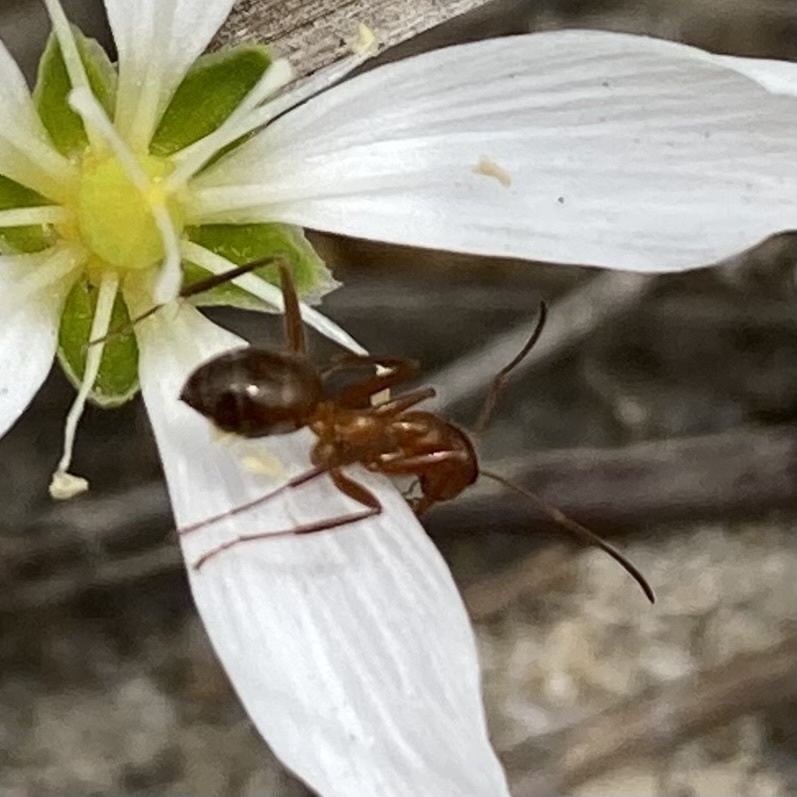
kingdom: Animalia
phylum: Arthropoda
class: Insecta
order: Hymenoptera
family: Formicidae
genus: Formica
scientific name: Formica
